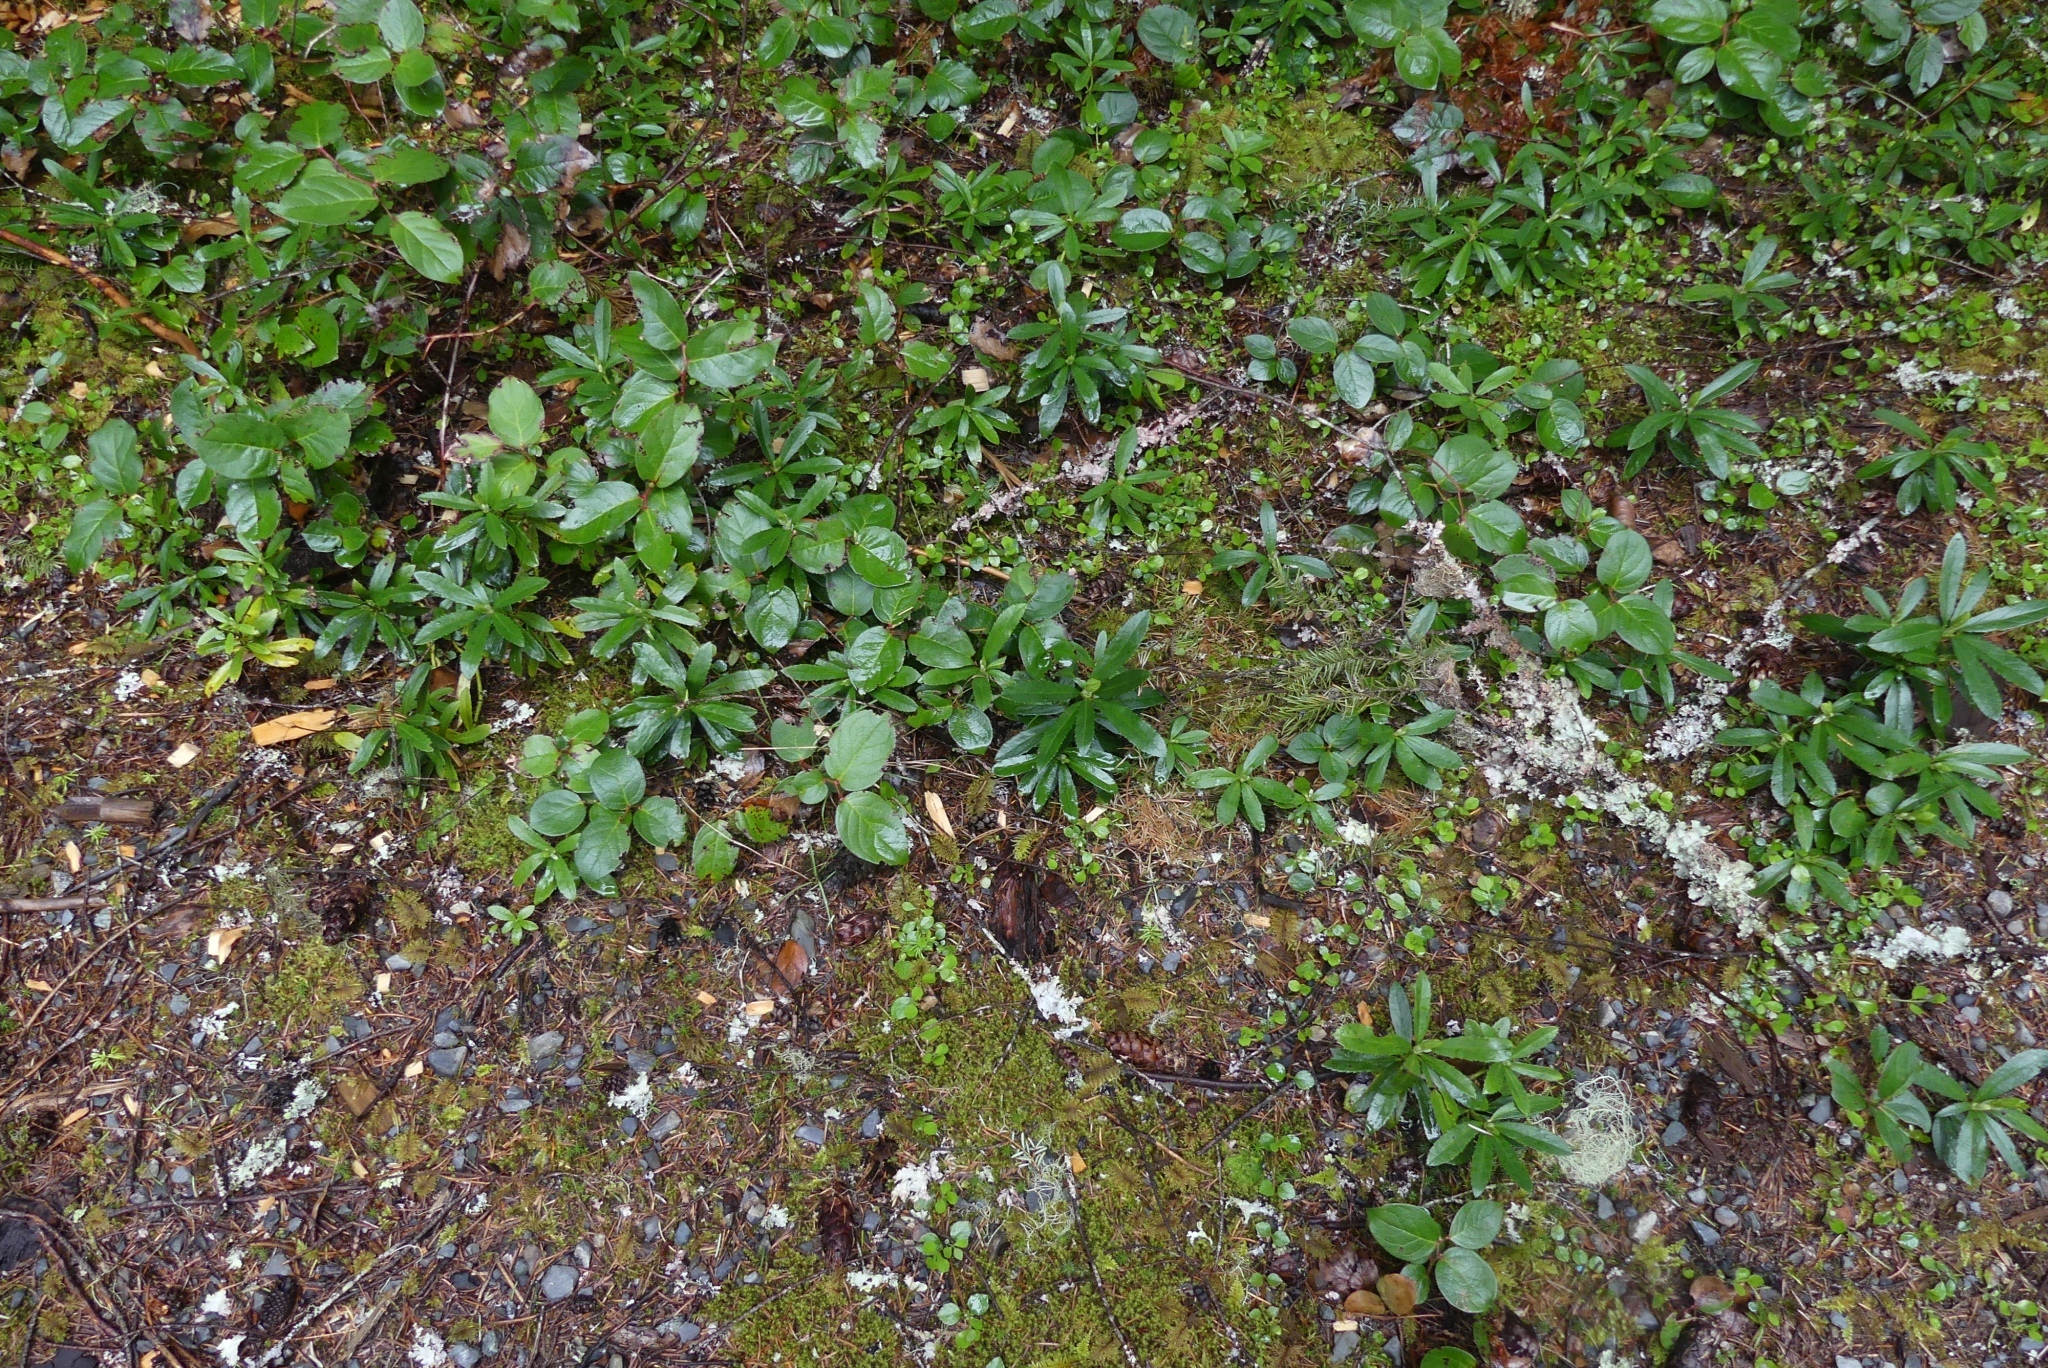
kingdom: Plantae
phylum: Tracheophyta
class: Magnoliopsida
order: Ericales
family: Ericaceae
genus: Chimaphila
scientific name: Chimaphila umbellata
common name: Pipsissewa
